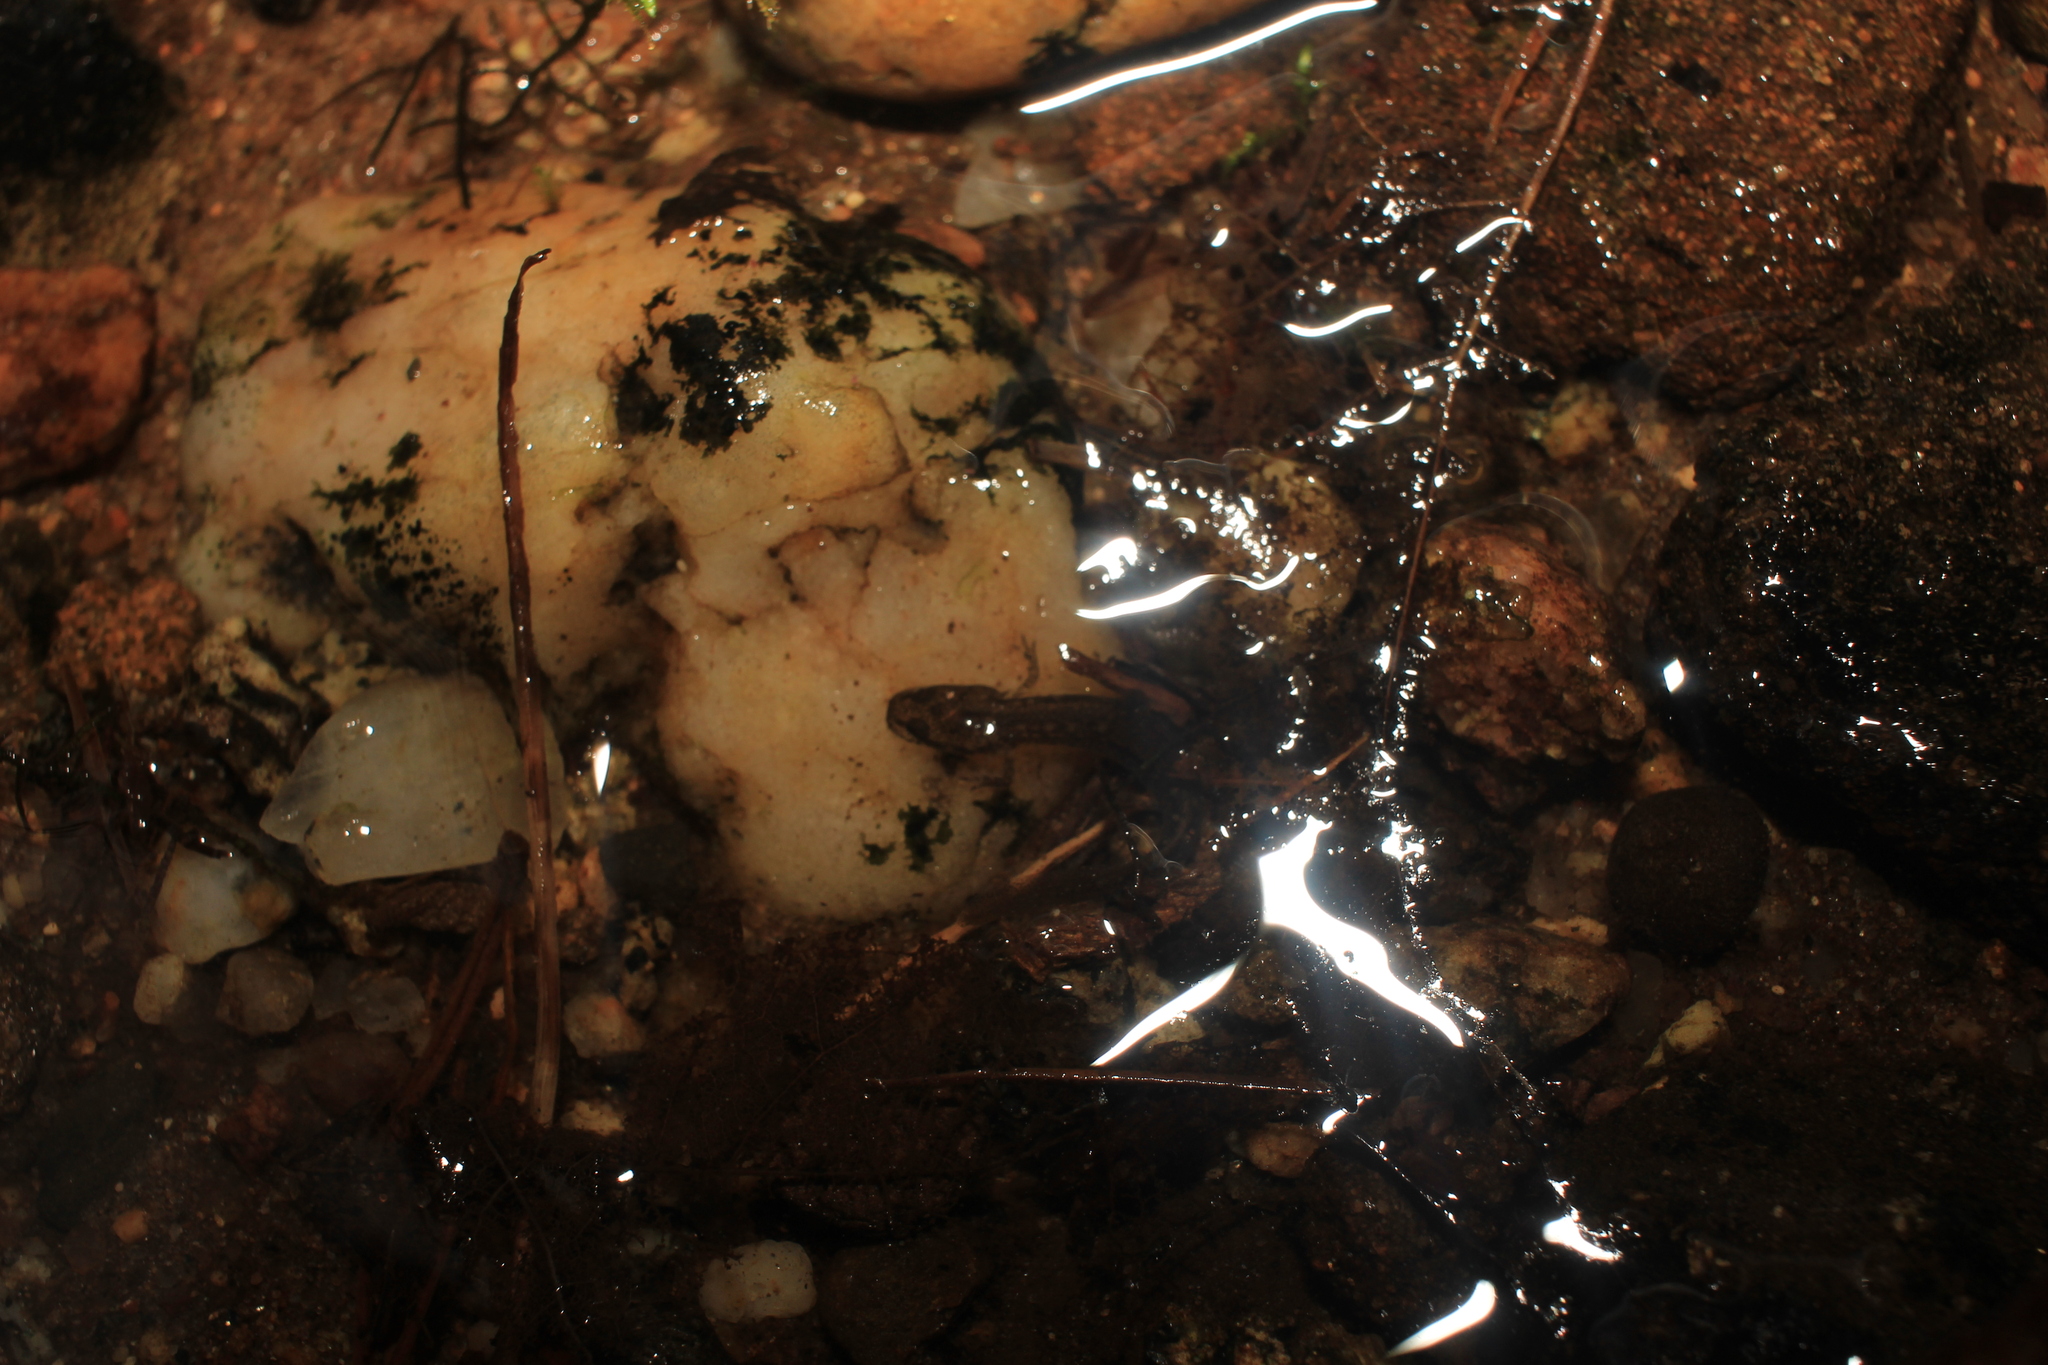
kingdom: Animalia
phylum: Chordata
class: Amphibia
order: Caudata
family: Plethodontidae
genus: Eurycea
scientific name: Eurycea bislineata
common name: Northern two-lined salamander
